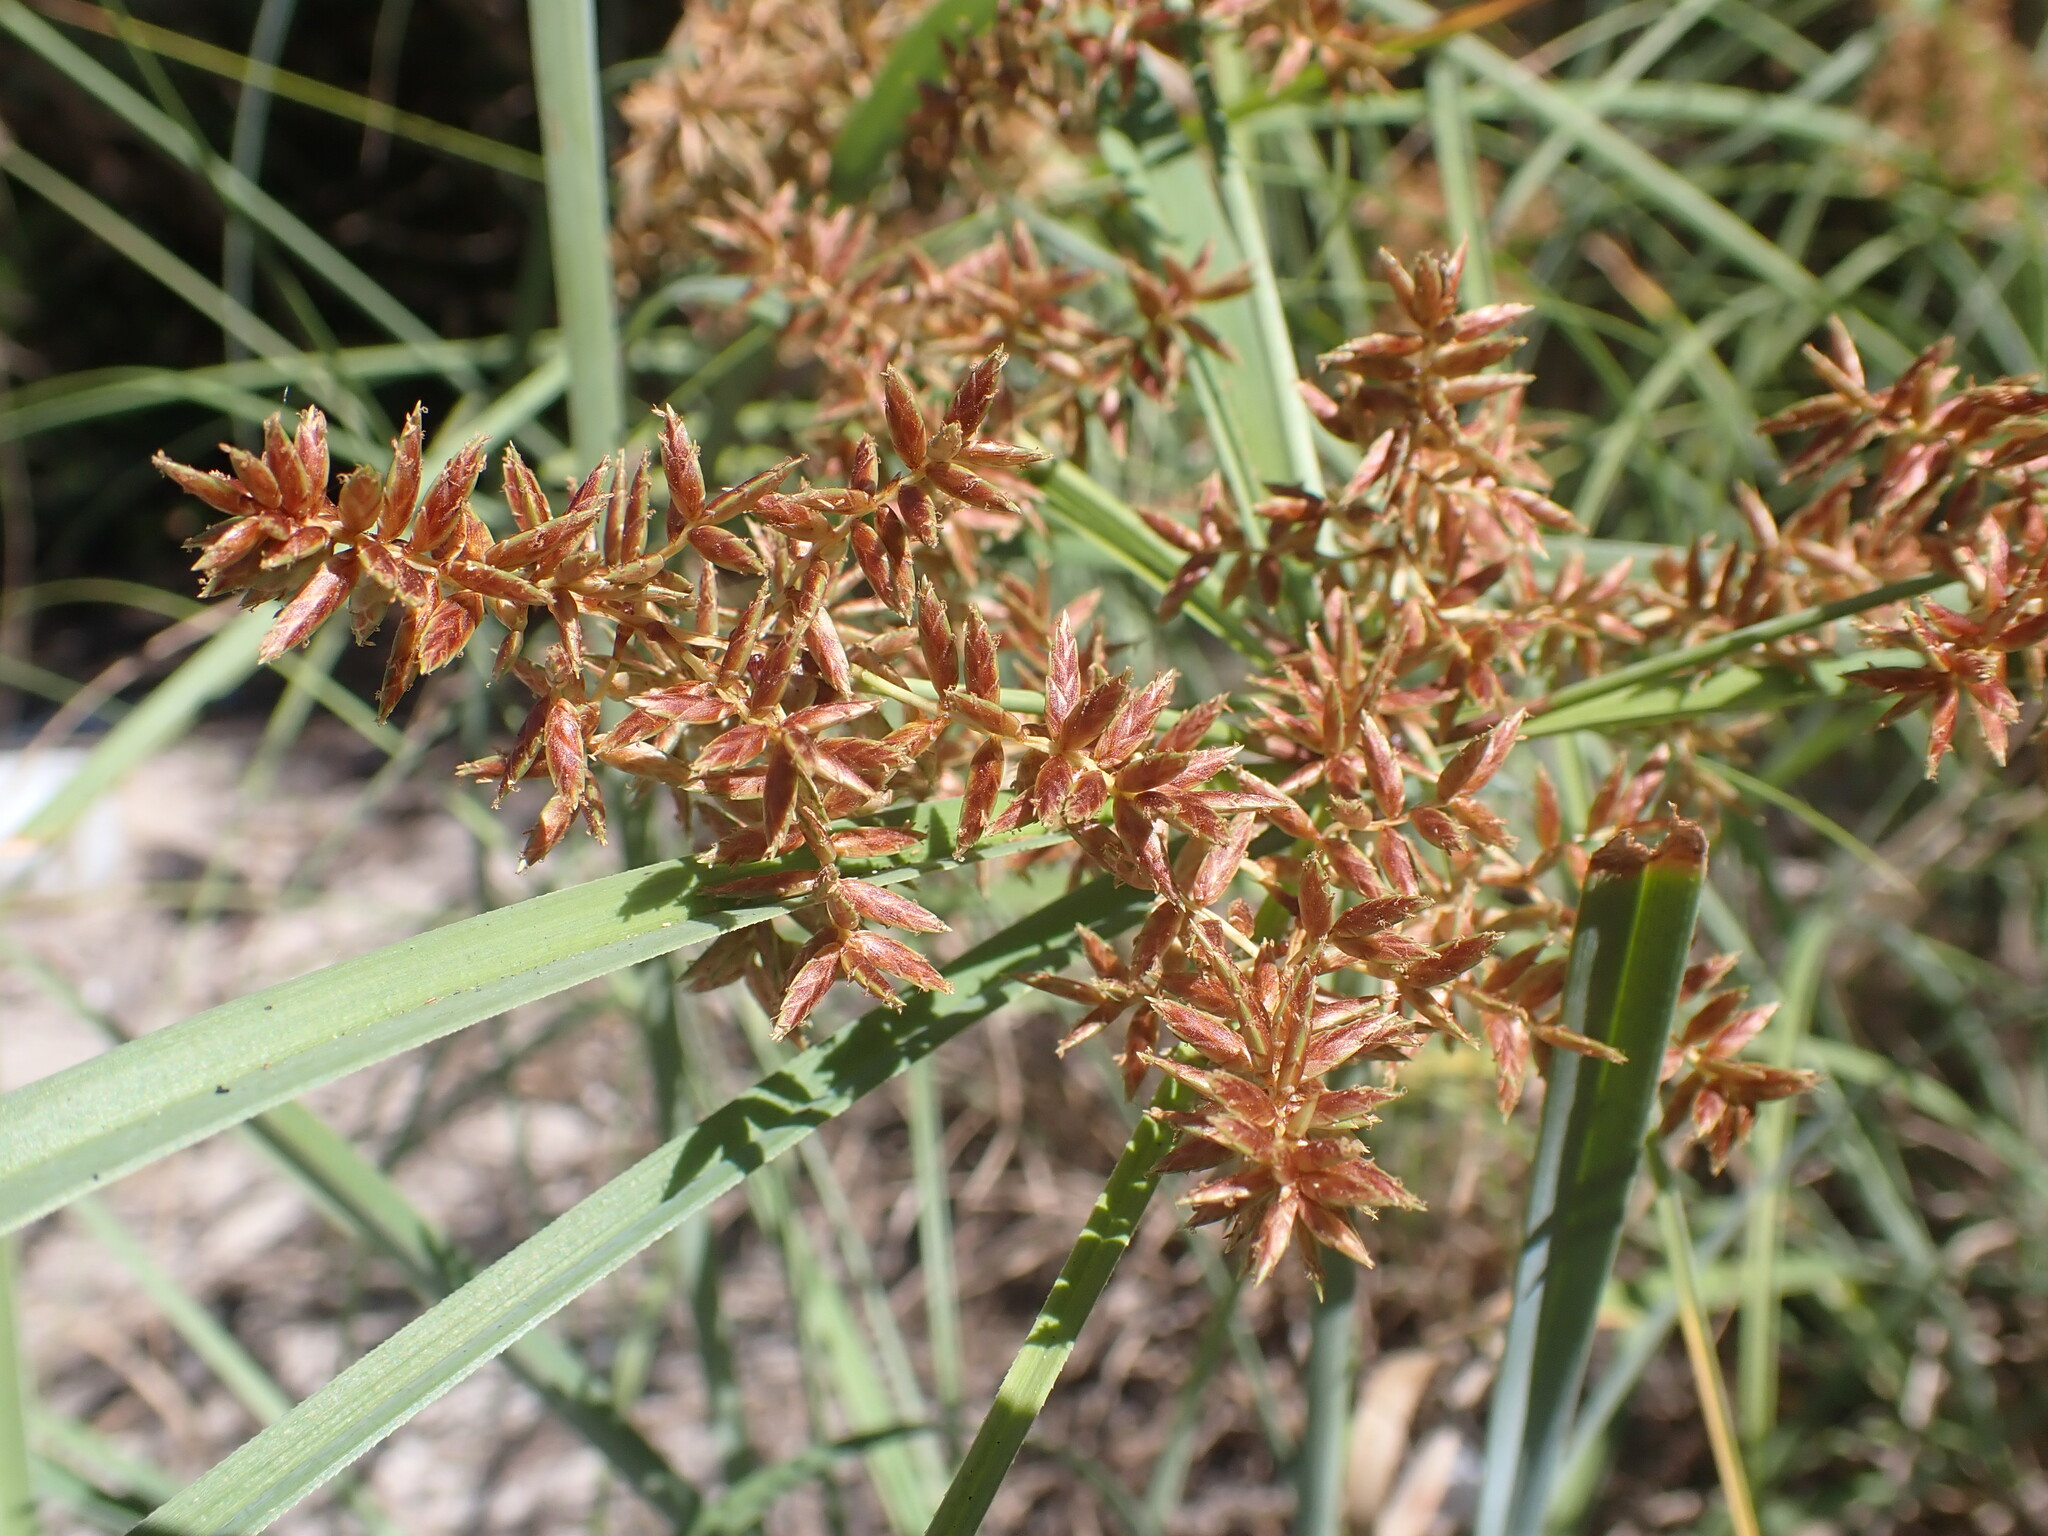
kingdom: Plantae
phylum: Tracheophyta
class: Liliopsida
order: Poales
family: Cyperaceae
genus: Cyperus
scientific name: Cyperus javanicus
